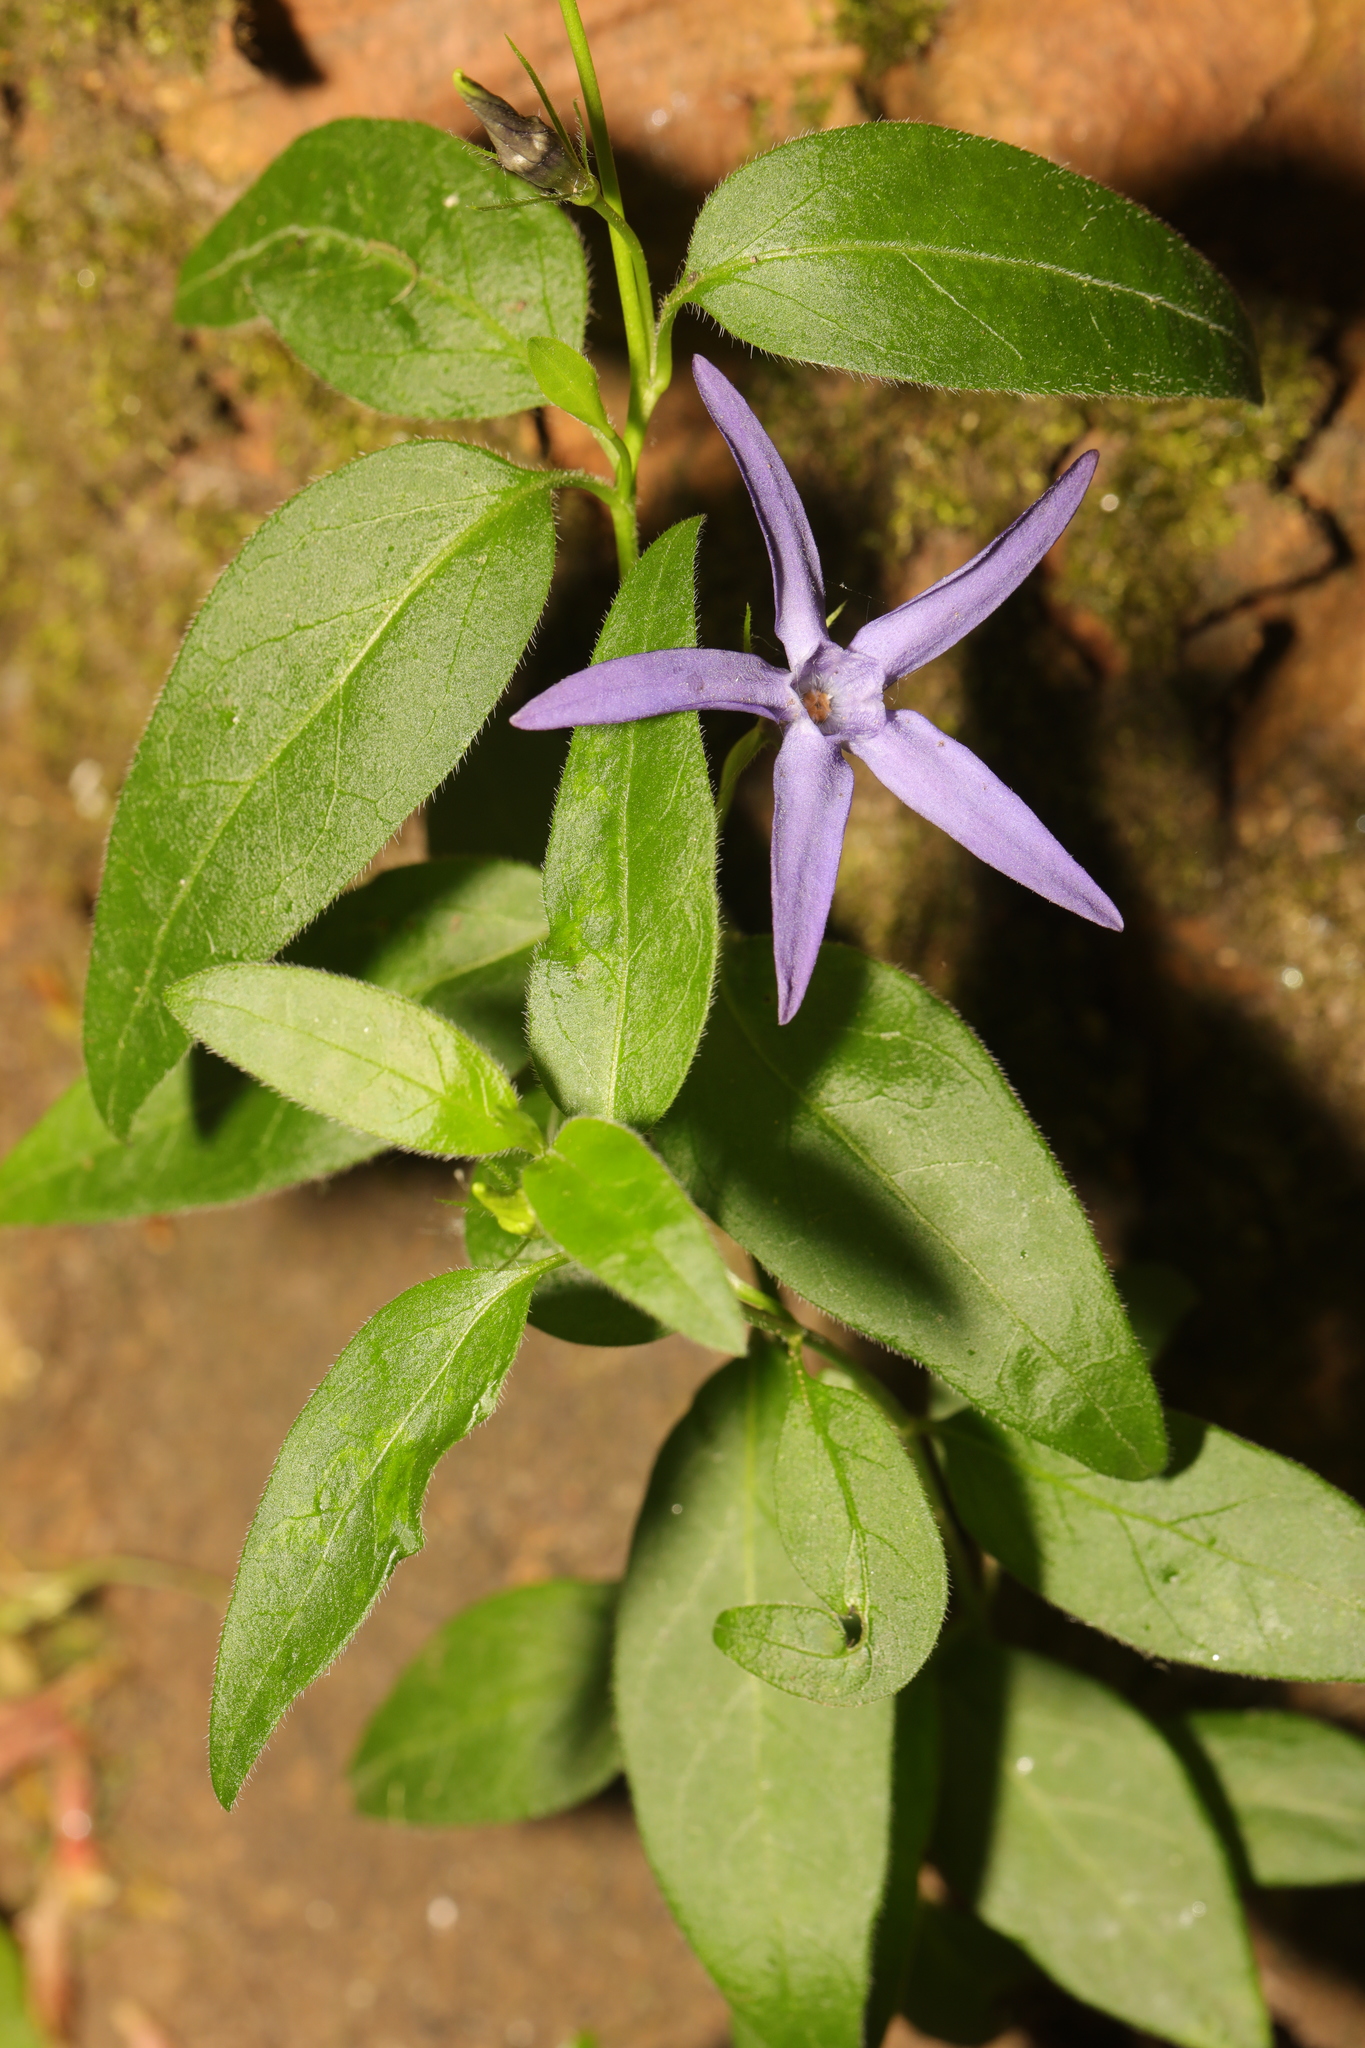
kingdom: Plantae
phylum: Tracheophyta
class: Magnoliopsida
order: Gentianales
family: Apocynaceae
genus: Vinca
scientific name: Vinca major
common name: Greater periwinkle
